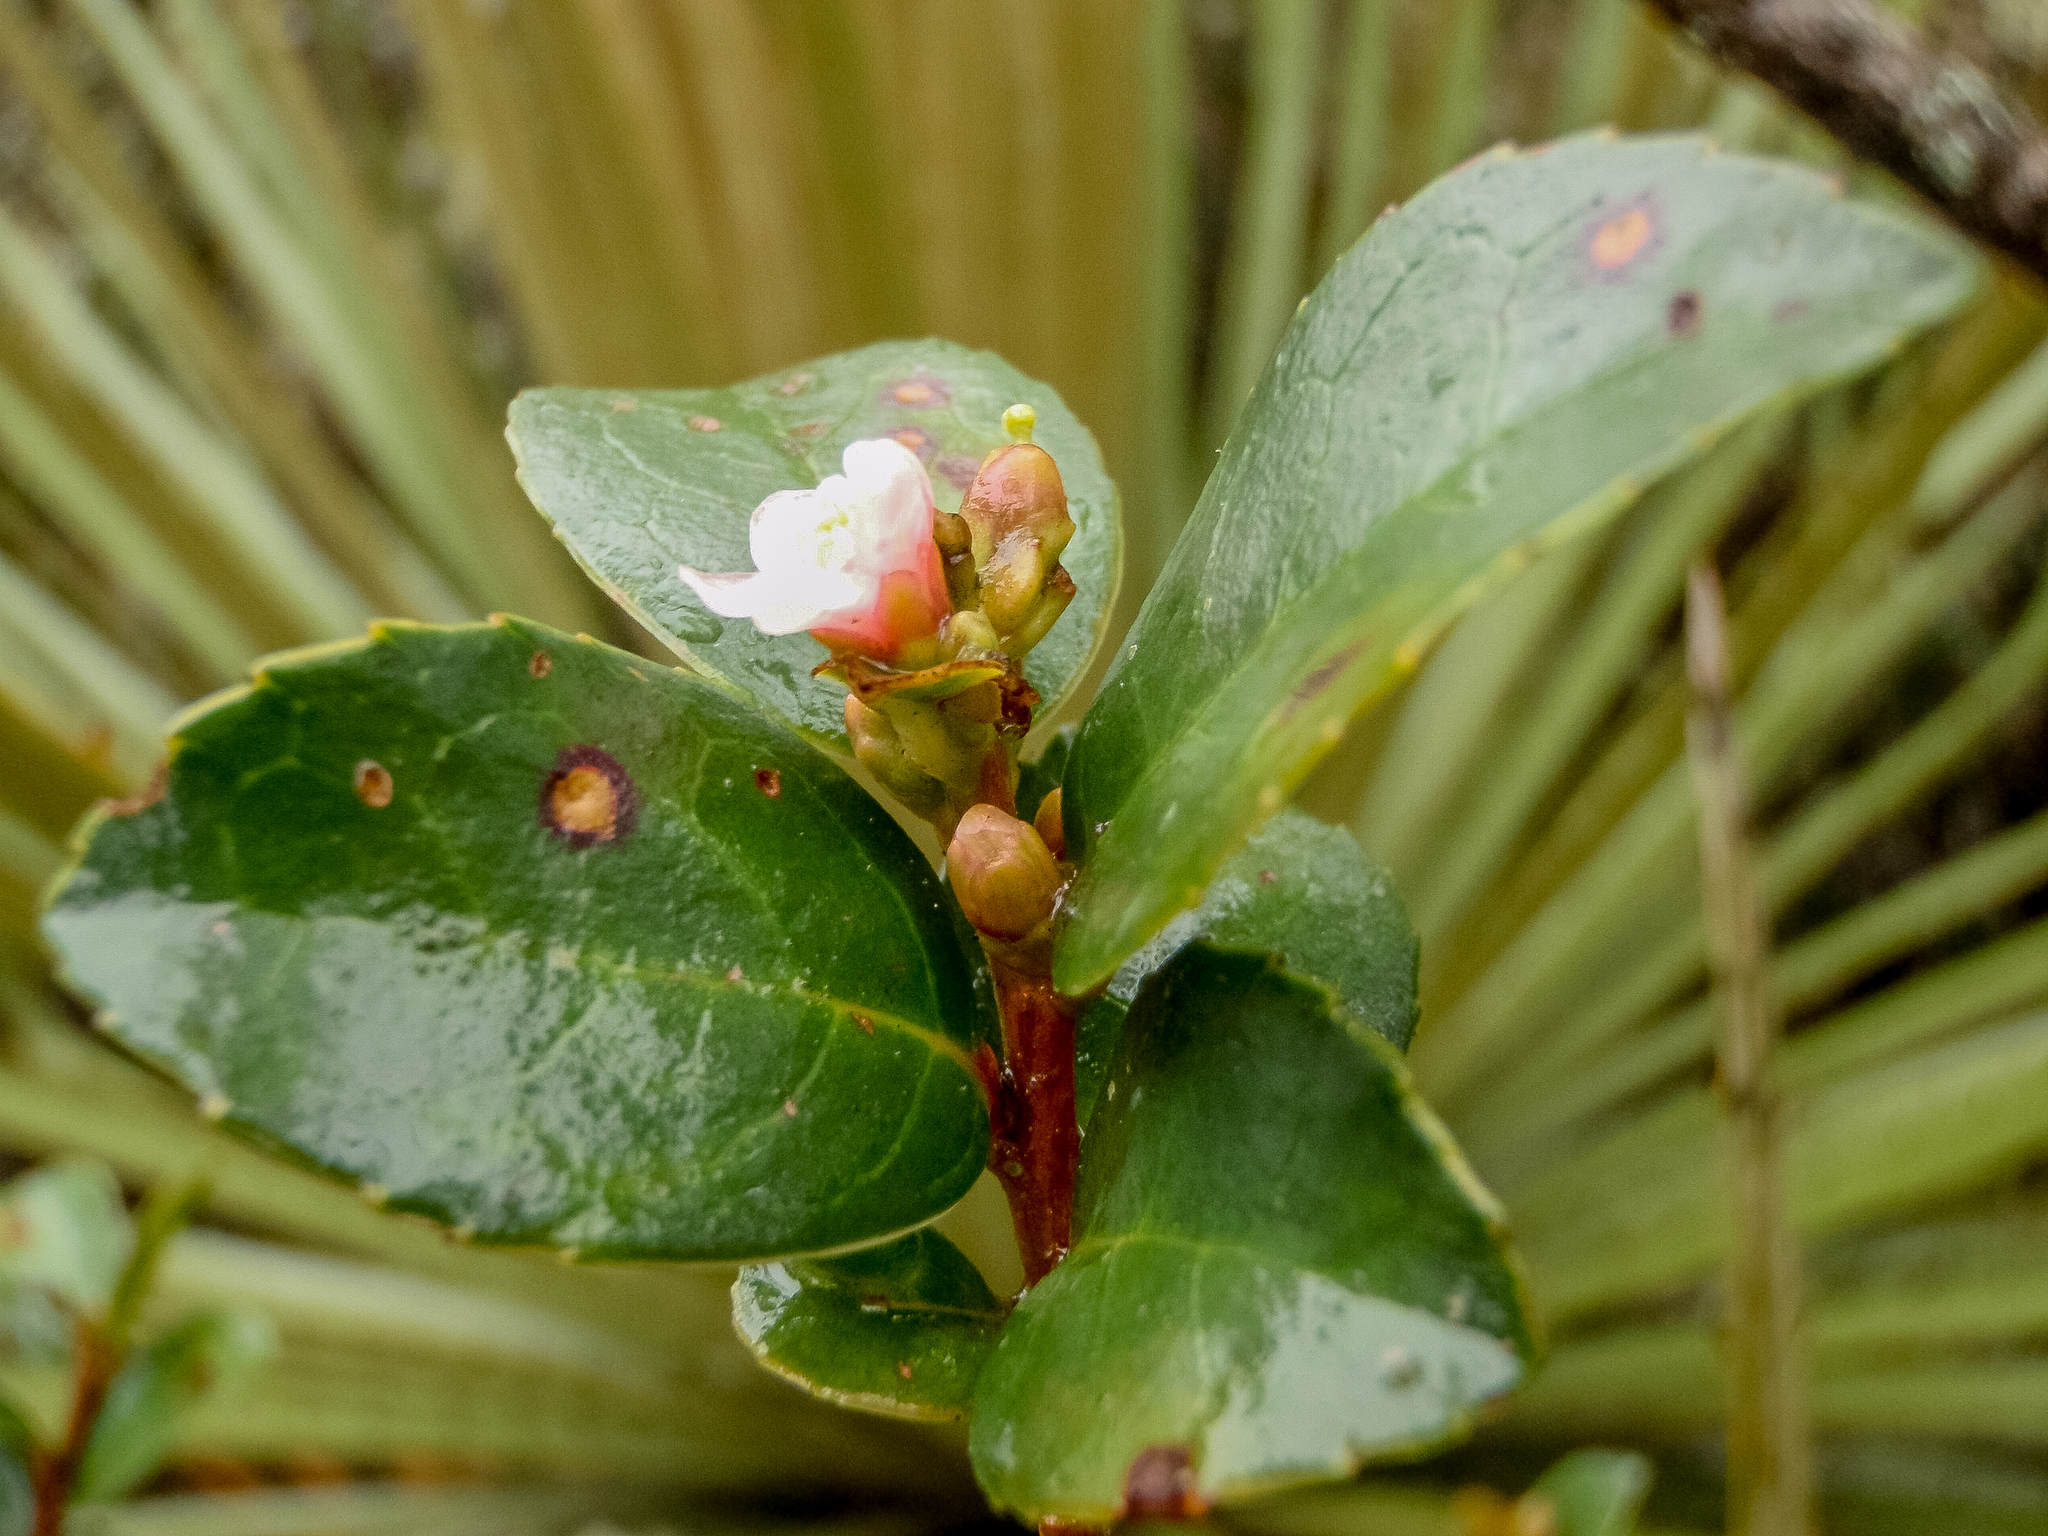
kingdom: Plantae
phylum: Tracheophyta
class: Magnoliopsida
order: Ericales
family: Symplocaceae
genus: Symplocos
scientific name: Symplocos theiformis
